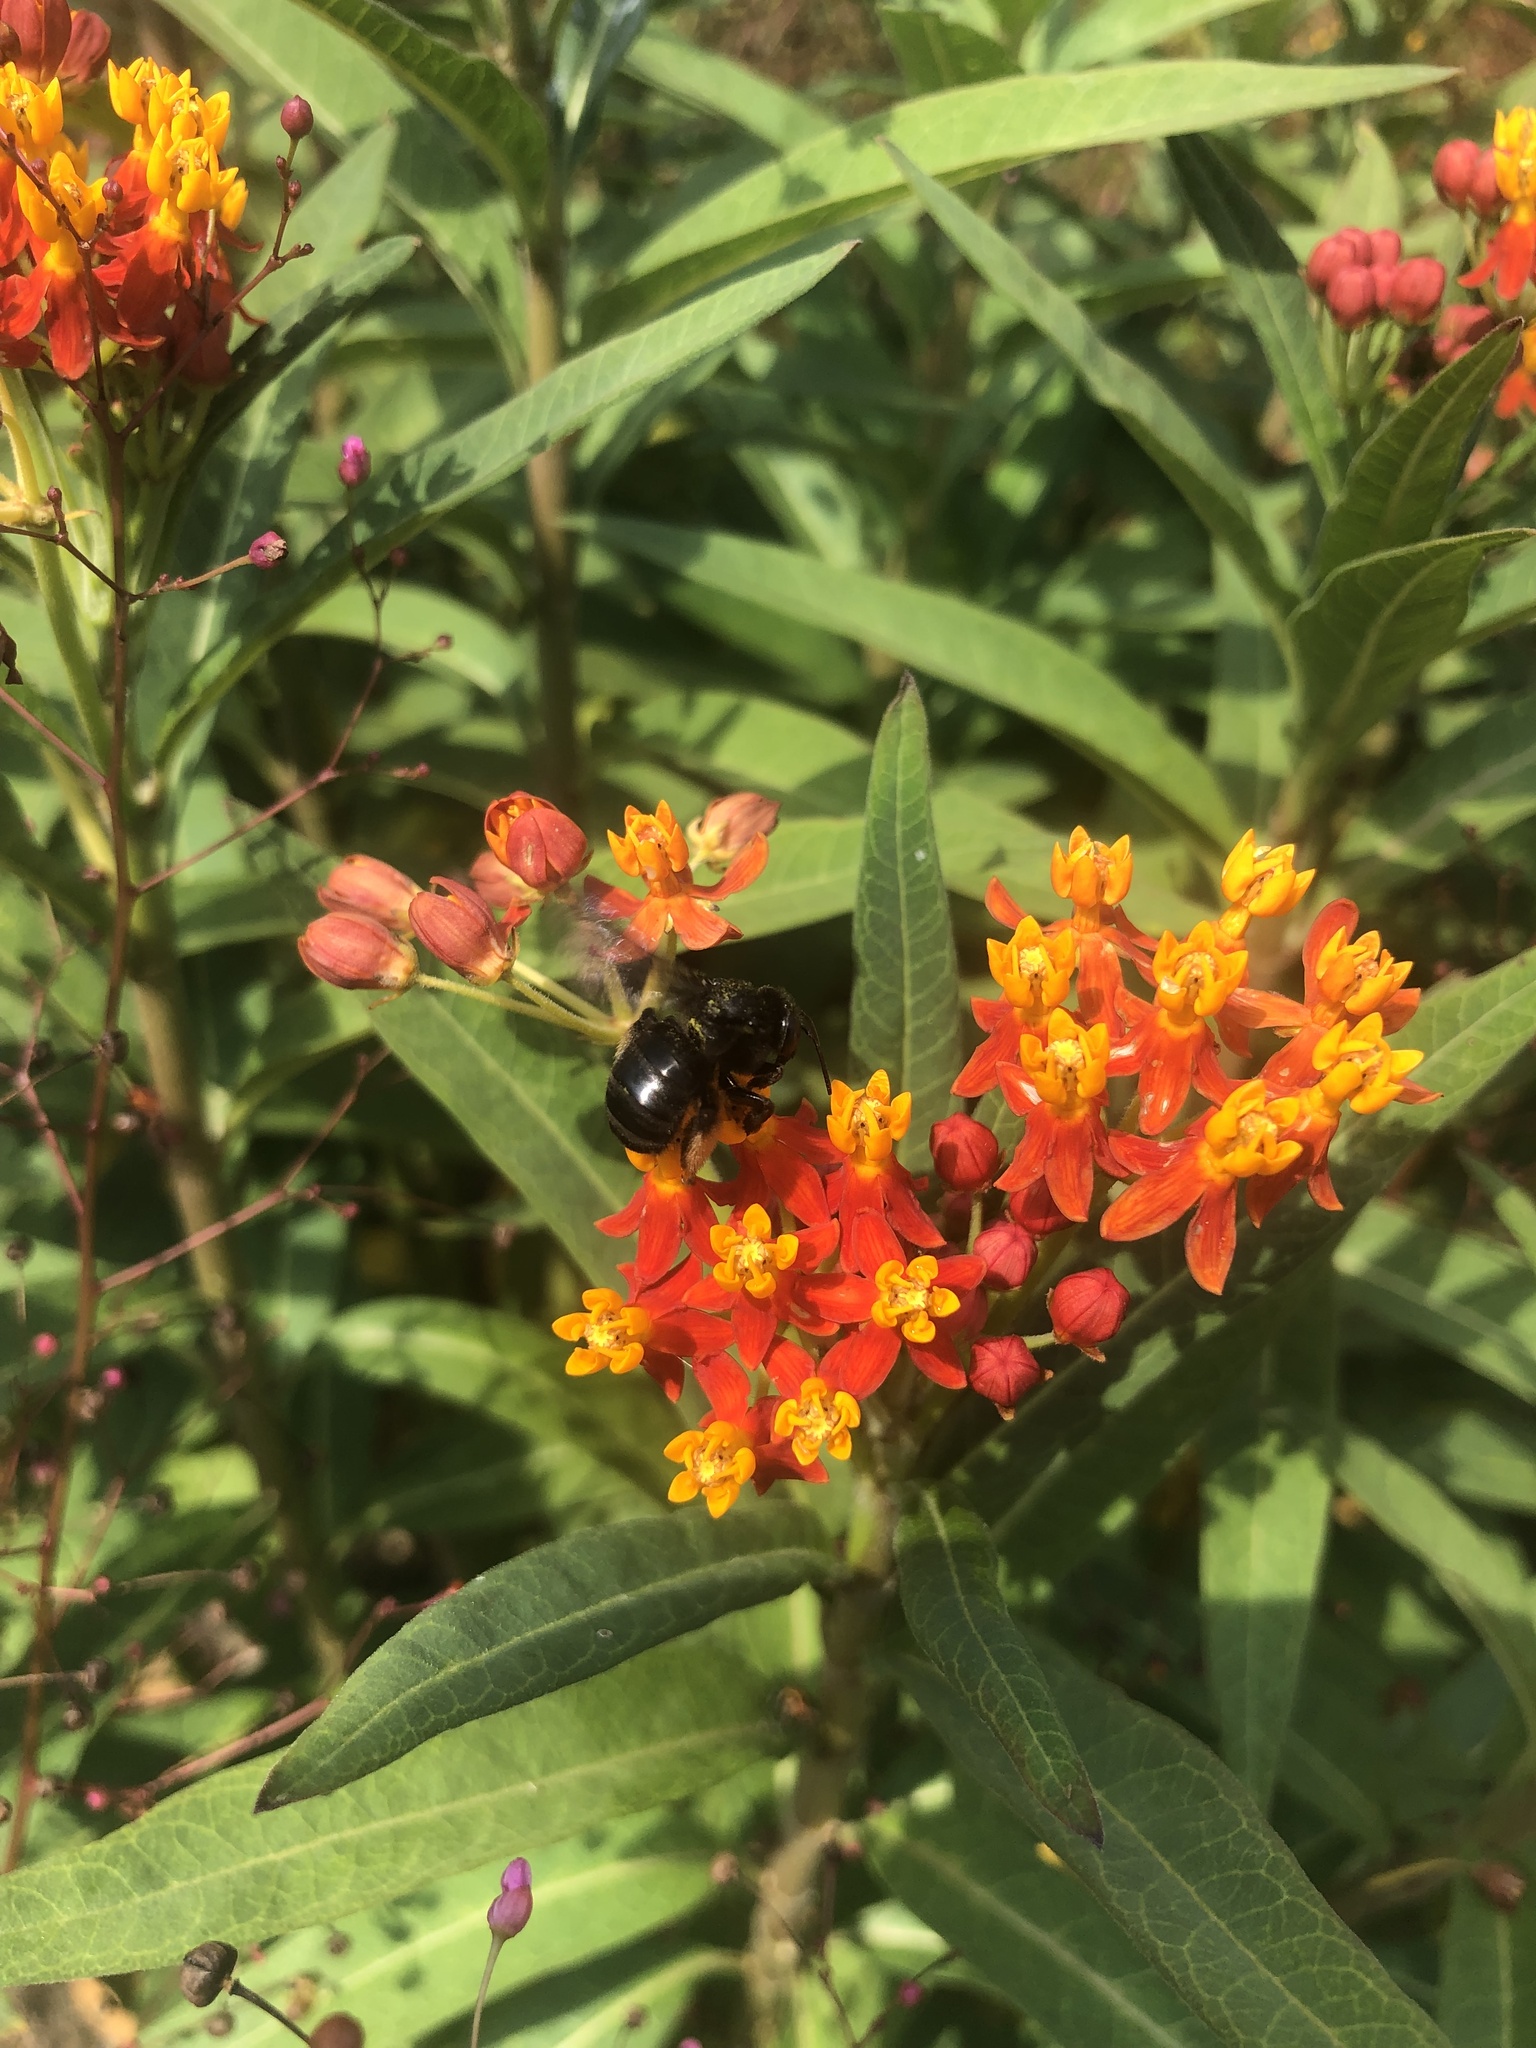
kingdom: Animalia
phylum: Arthropoda
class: Insecta
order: Hymenoptera
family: Apidae
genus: Melissodes
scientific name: Melissodes bimaculatus
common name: Two-spotted long-horned bee
